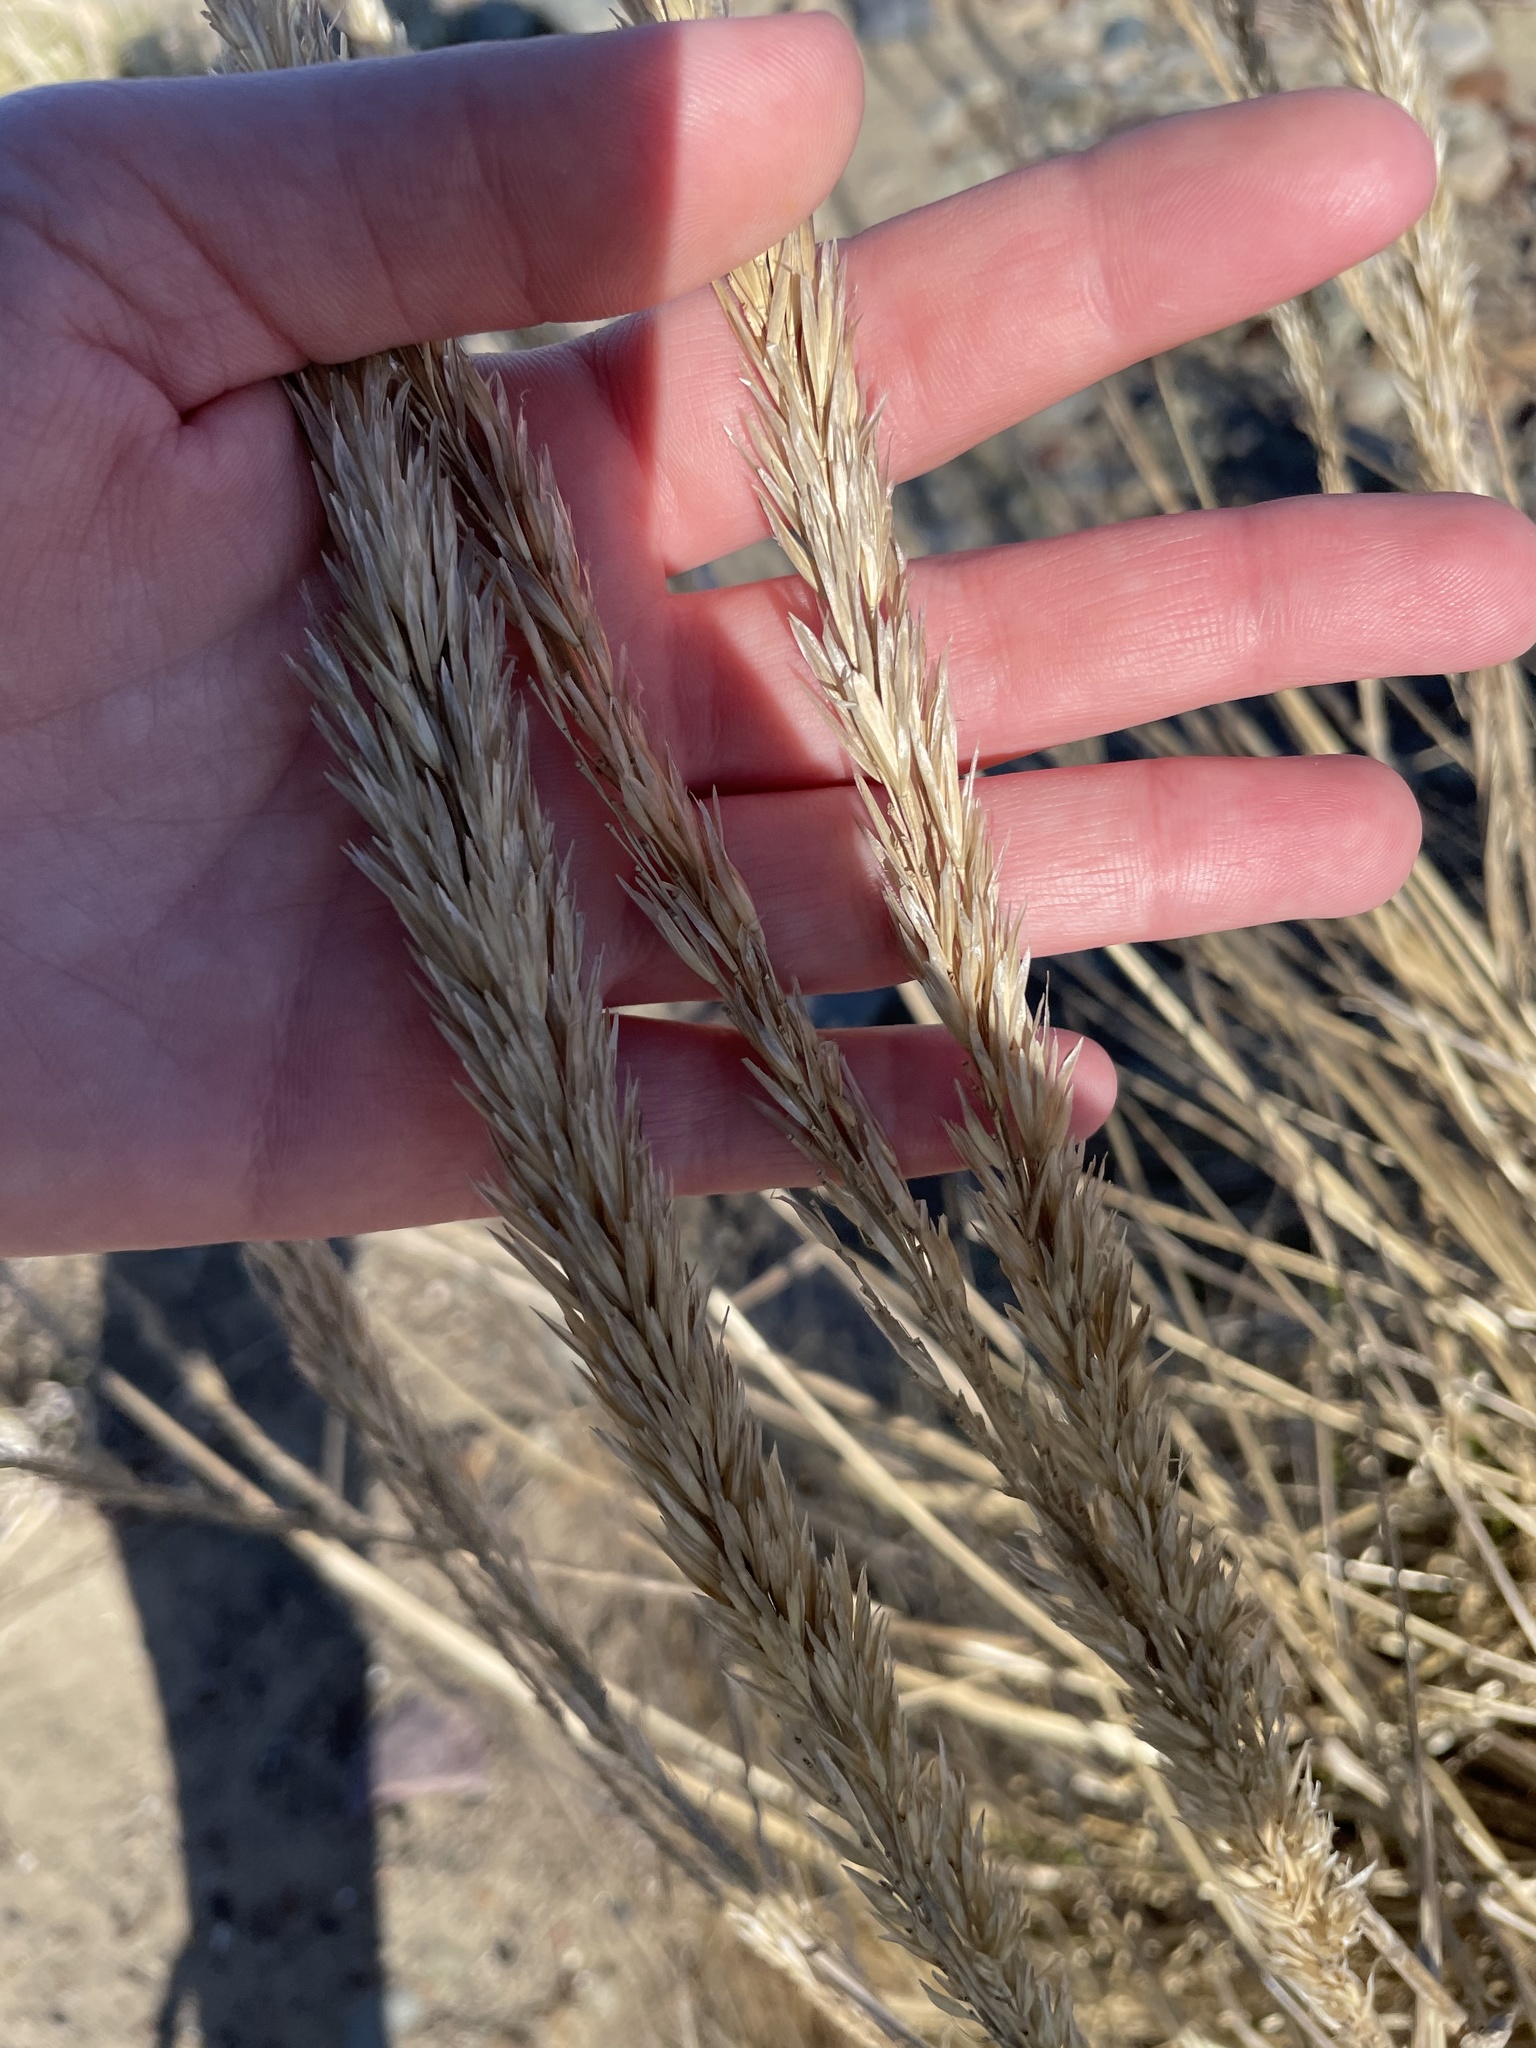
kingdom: Plantae
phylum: Tracheophyta
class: Liliopsida
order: Poales
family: Poaceae
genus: Calamagrostis
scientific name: Calamagrostis breviligulata
